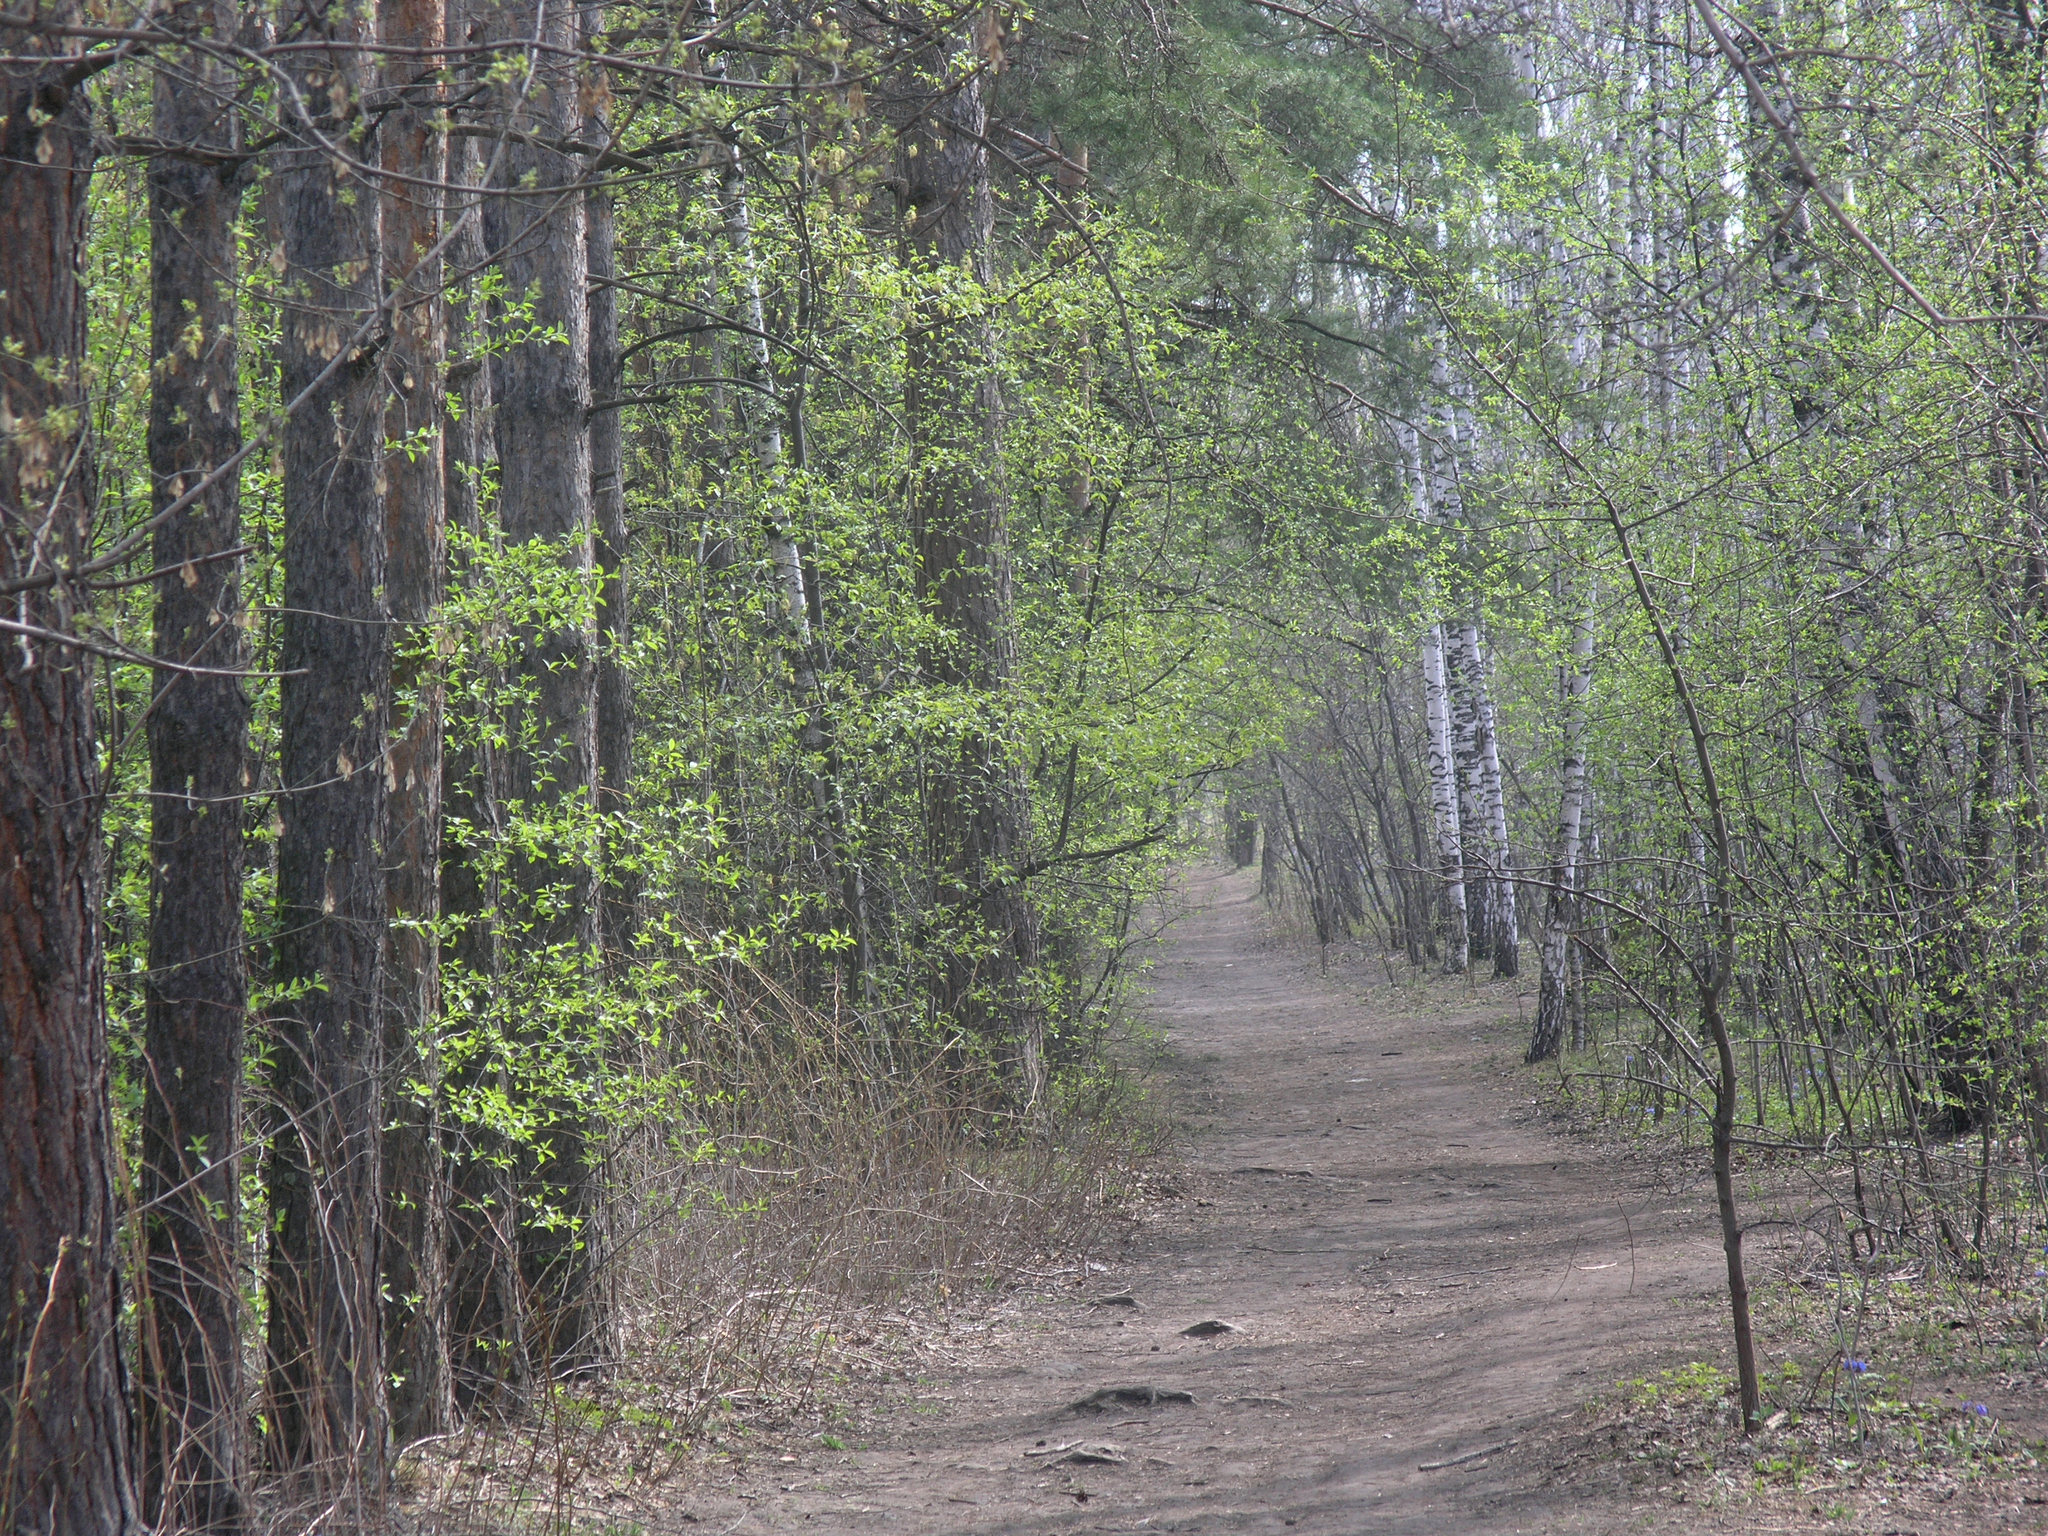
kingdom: Plantae
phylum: Tracheophyta
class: Pinopsida
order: Pinales
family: Pinaceae
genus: Pinus
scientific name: Pinus sylvestris
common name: Scots pine
